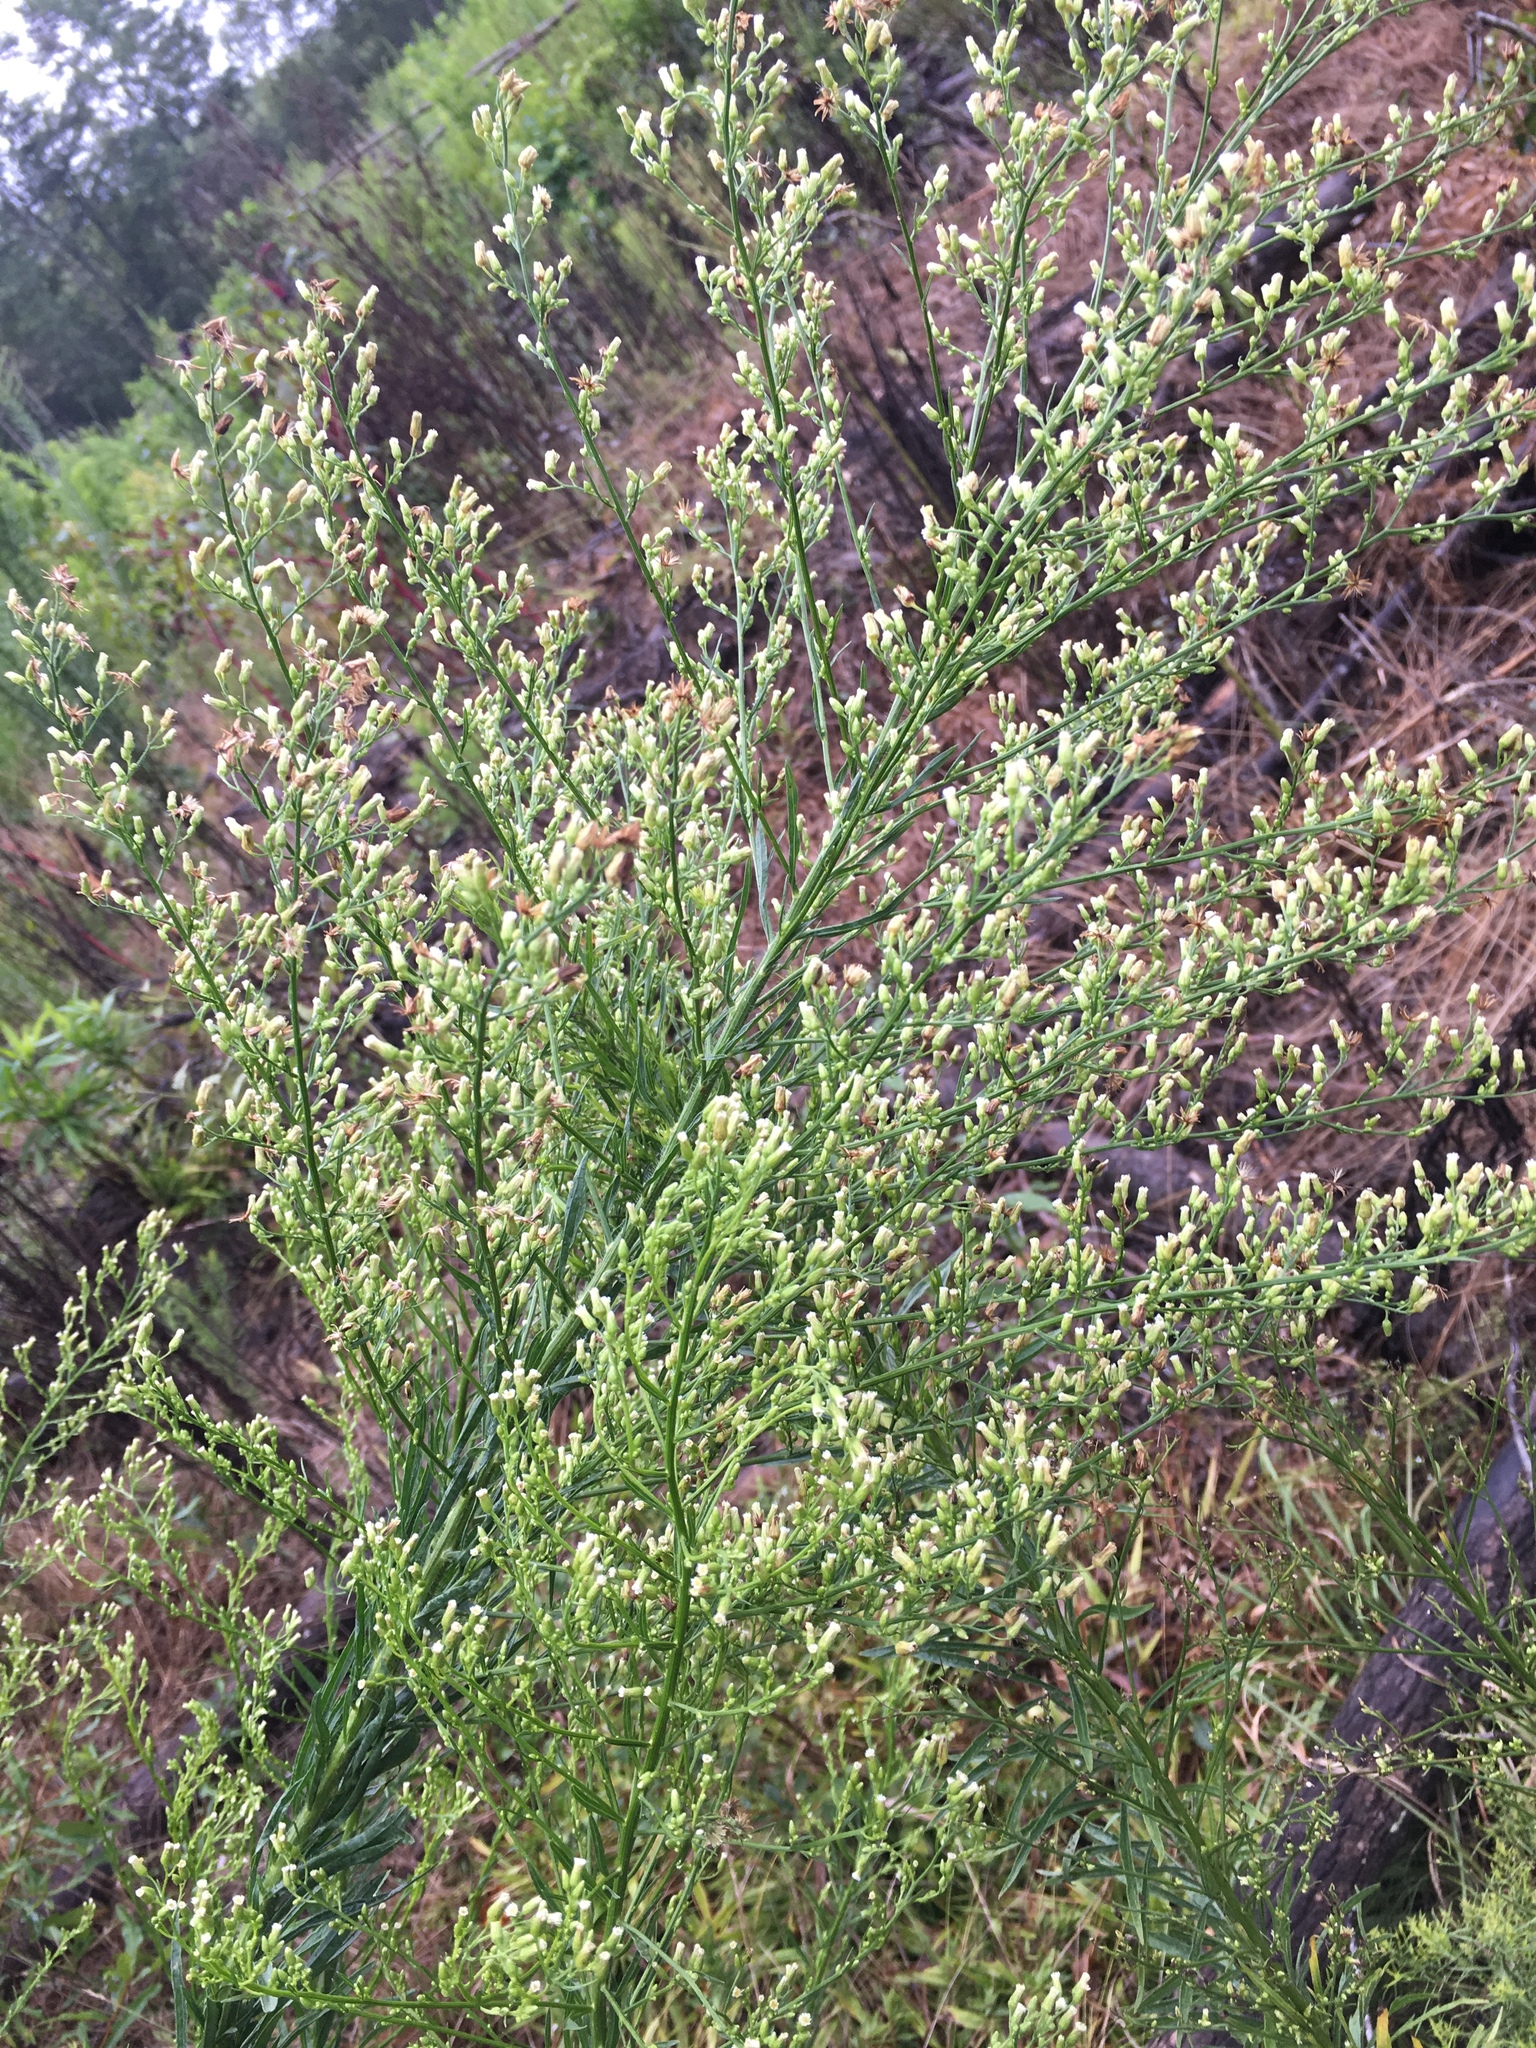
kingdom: Plantae
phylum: Tracheophyta
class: Magnoliopsida
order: Asterales
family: Asteraceae
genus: Erigeron
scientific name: Erigeron canadensis
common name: Canadian fleabane
